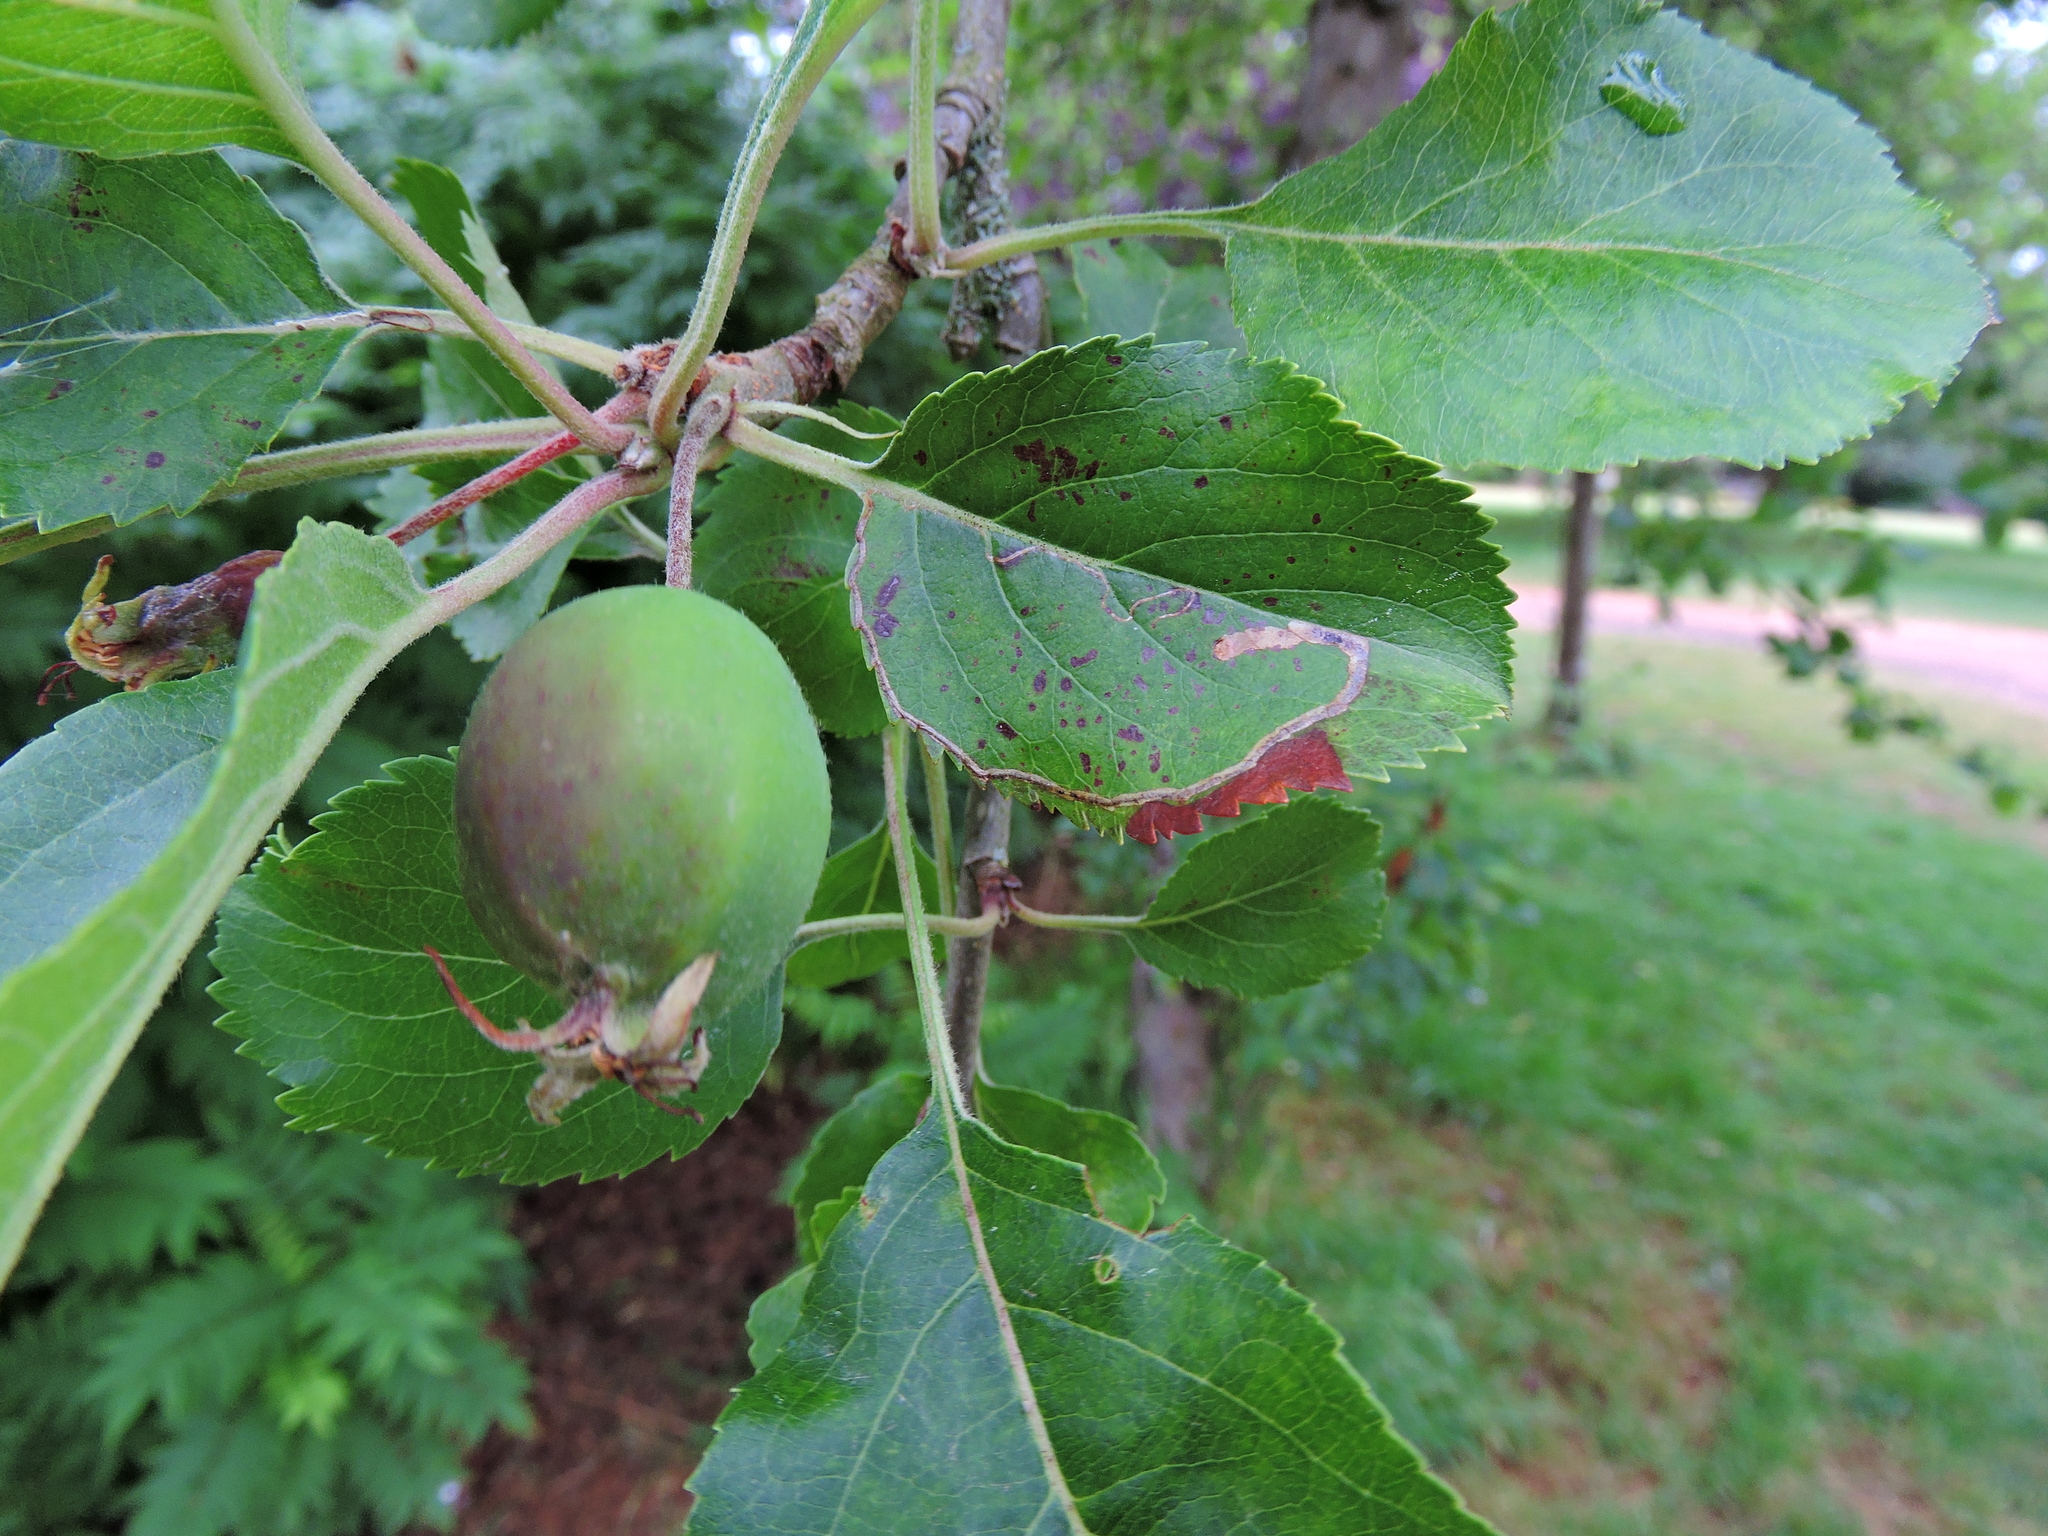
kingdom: Plantae
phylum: Tracheophyta
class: Magnoliopsida
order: Rosales
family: Rosaceae
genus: Malus
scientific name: Malus domestica
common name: Apple
